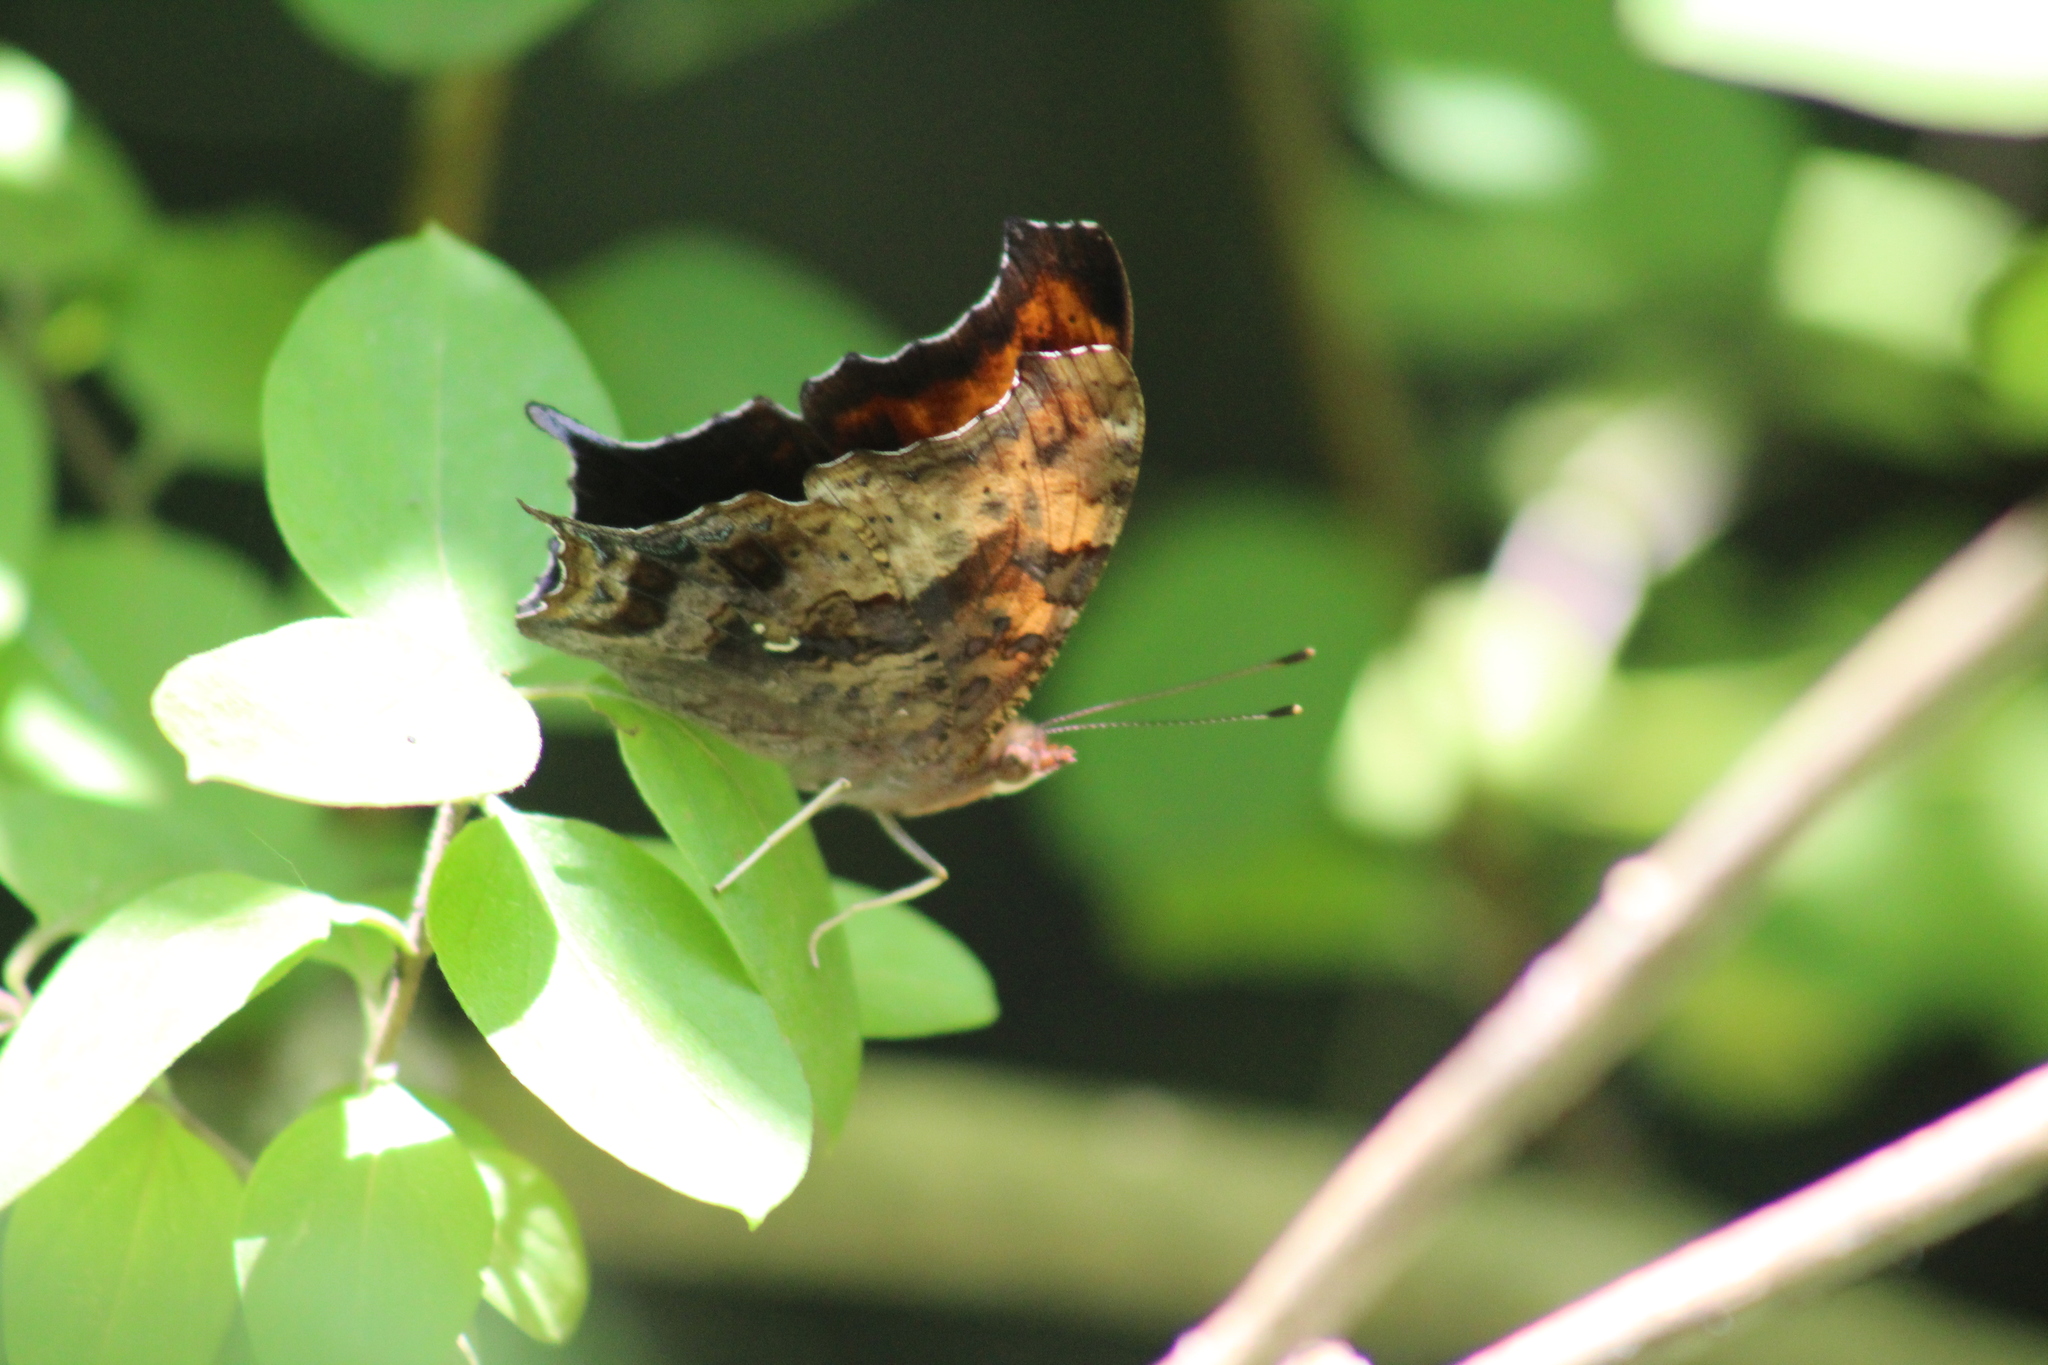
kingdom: Animalia
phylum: Arthropoda
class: Insecta
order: Lepidoptera
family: Nymphalidae
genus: Polygonia
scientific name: Polygonia interrogationis
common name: Question mark
